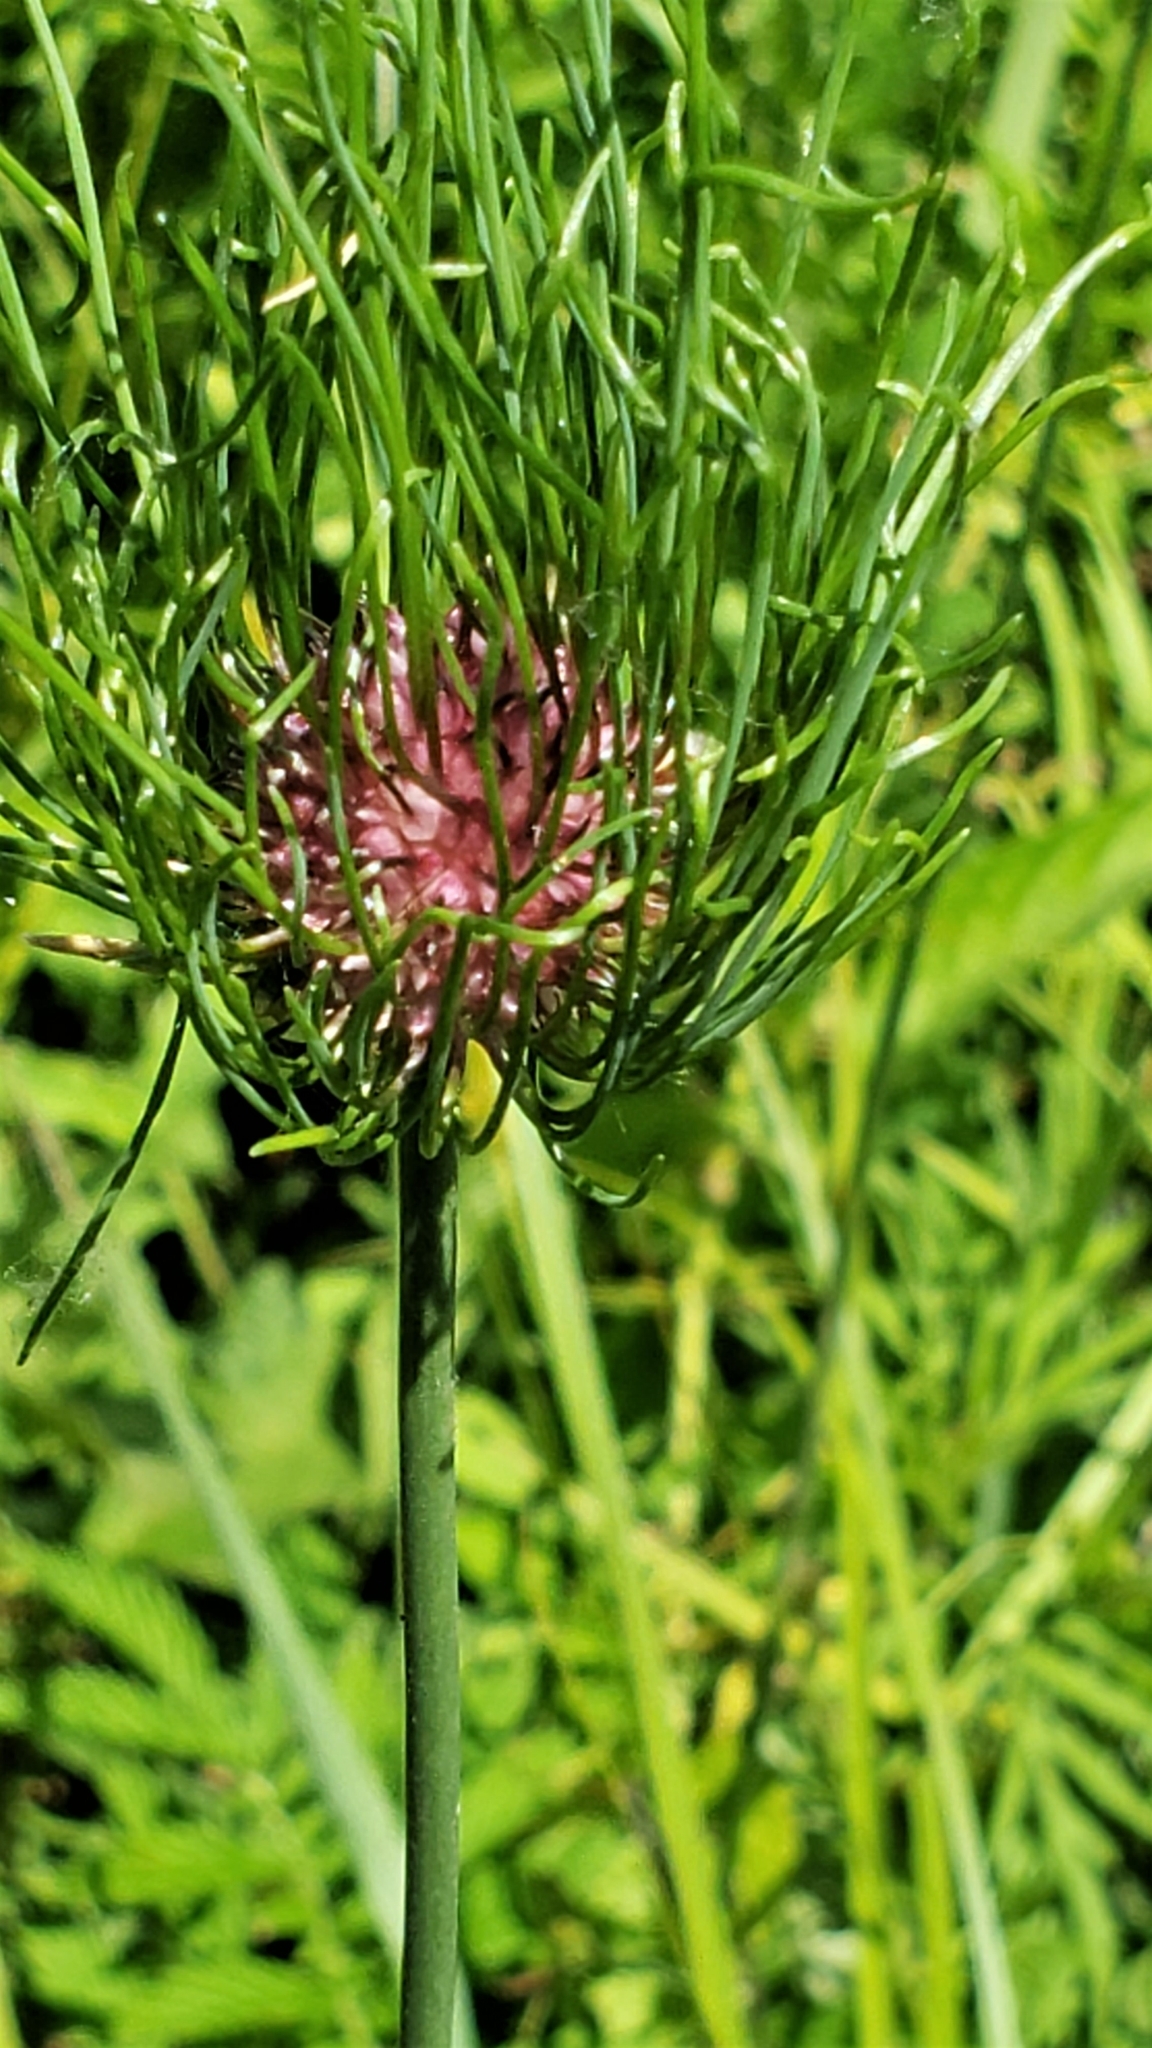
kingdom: Plantae
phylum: Tracheophyta
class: Liliopsida
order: Asparagales
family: Amaryllidaceae
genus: Allium
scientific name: Allium vineale
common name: Crow garlic
